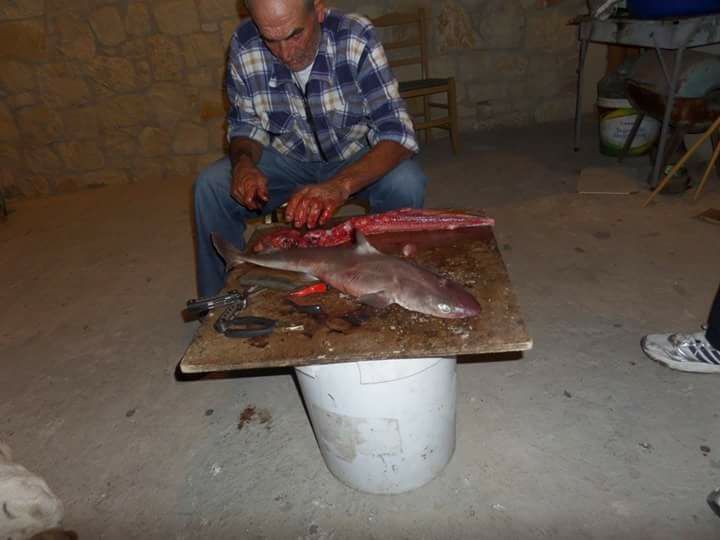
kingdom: Animalia
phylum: Chordata
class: Elasmobranchii
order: Squaliformes
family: Squalidae
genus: Squalus
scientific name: Squalus blainville
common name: Longnose spurdog
